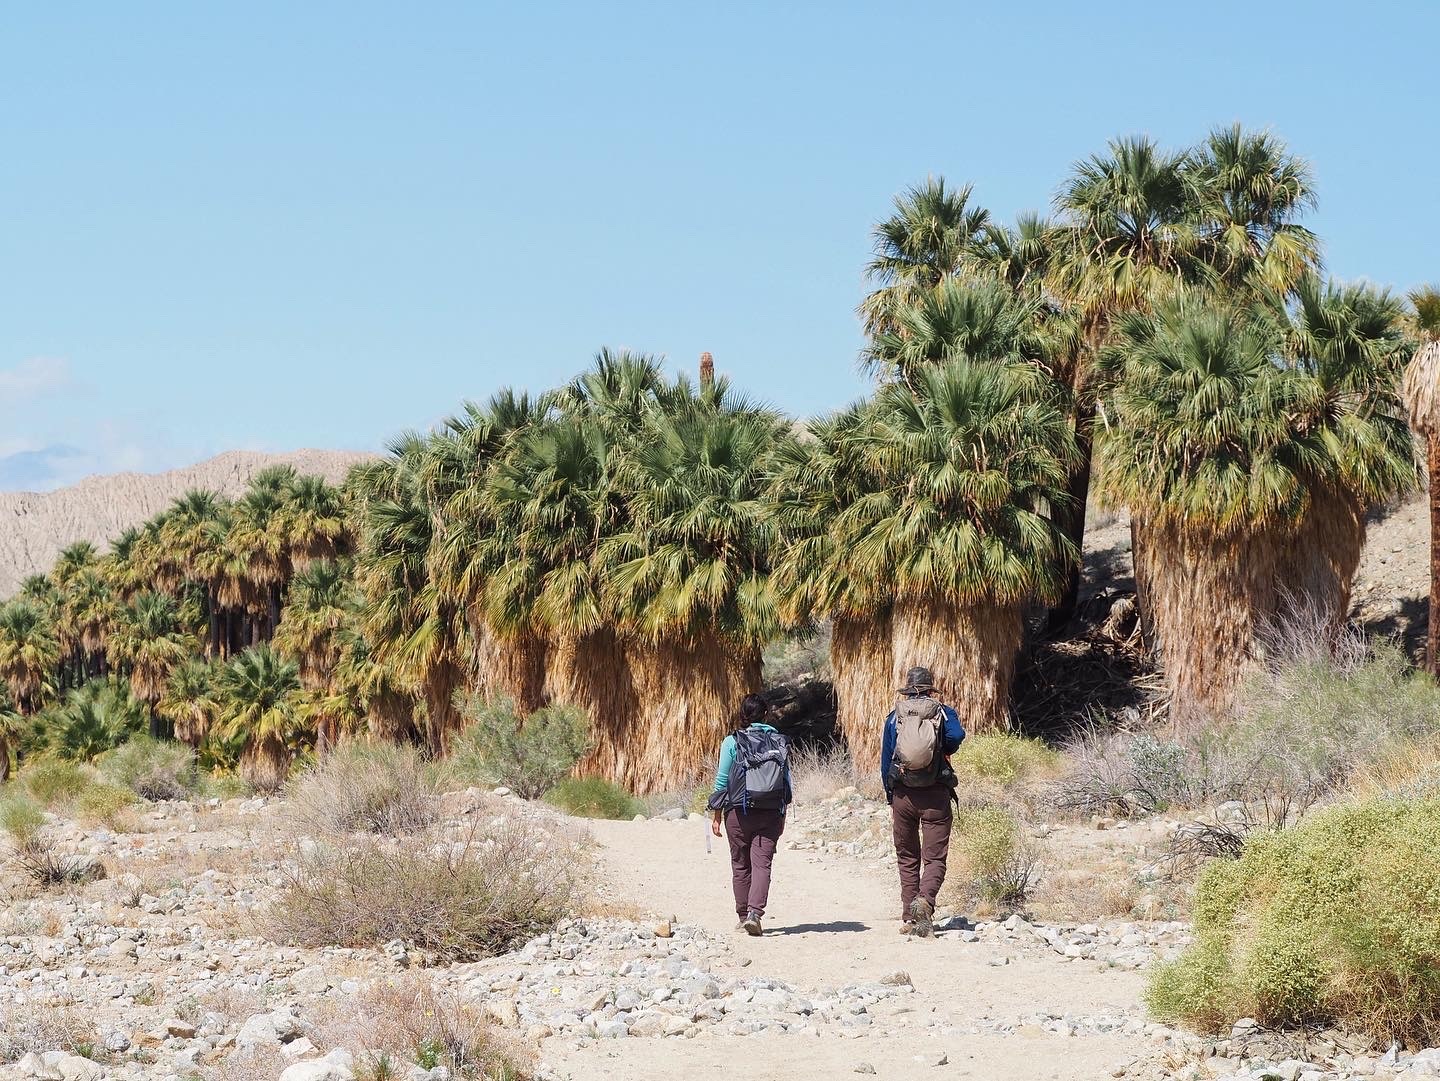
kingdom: Plantae
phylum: Tracheophyta
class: Liliopsida
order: Arecales
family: Arecaceae
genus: Washingtonia
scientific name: Washingtonia filifera
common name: California fan palm
